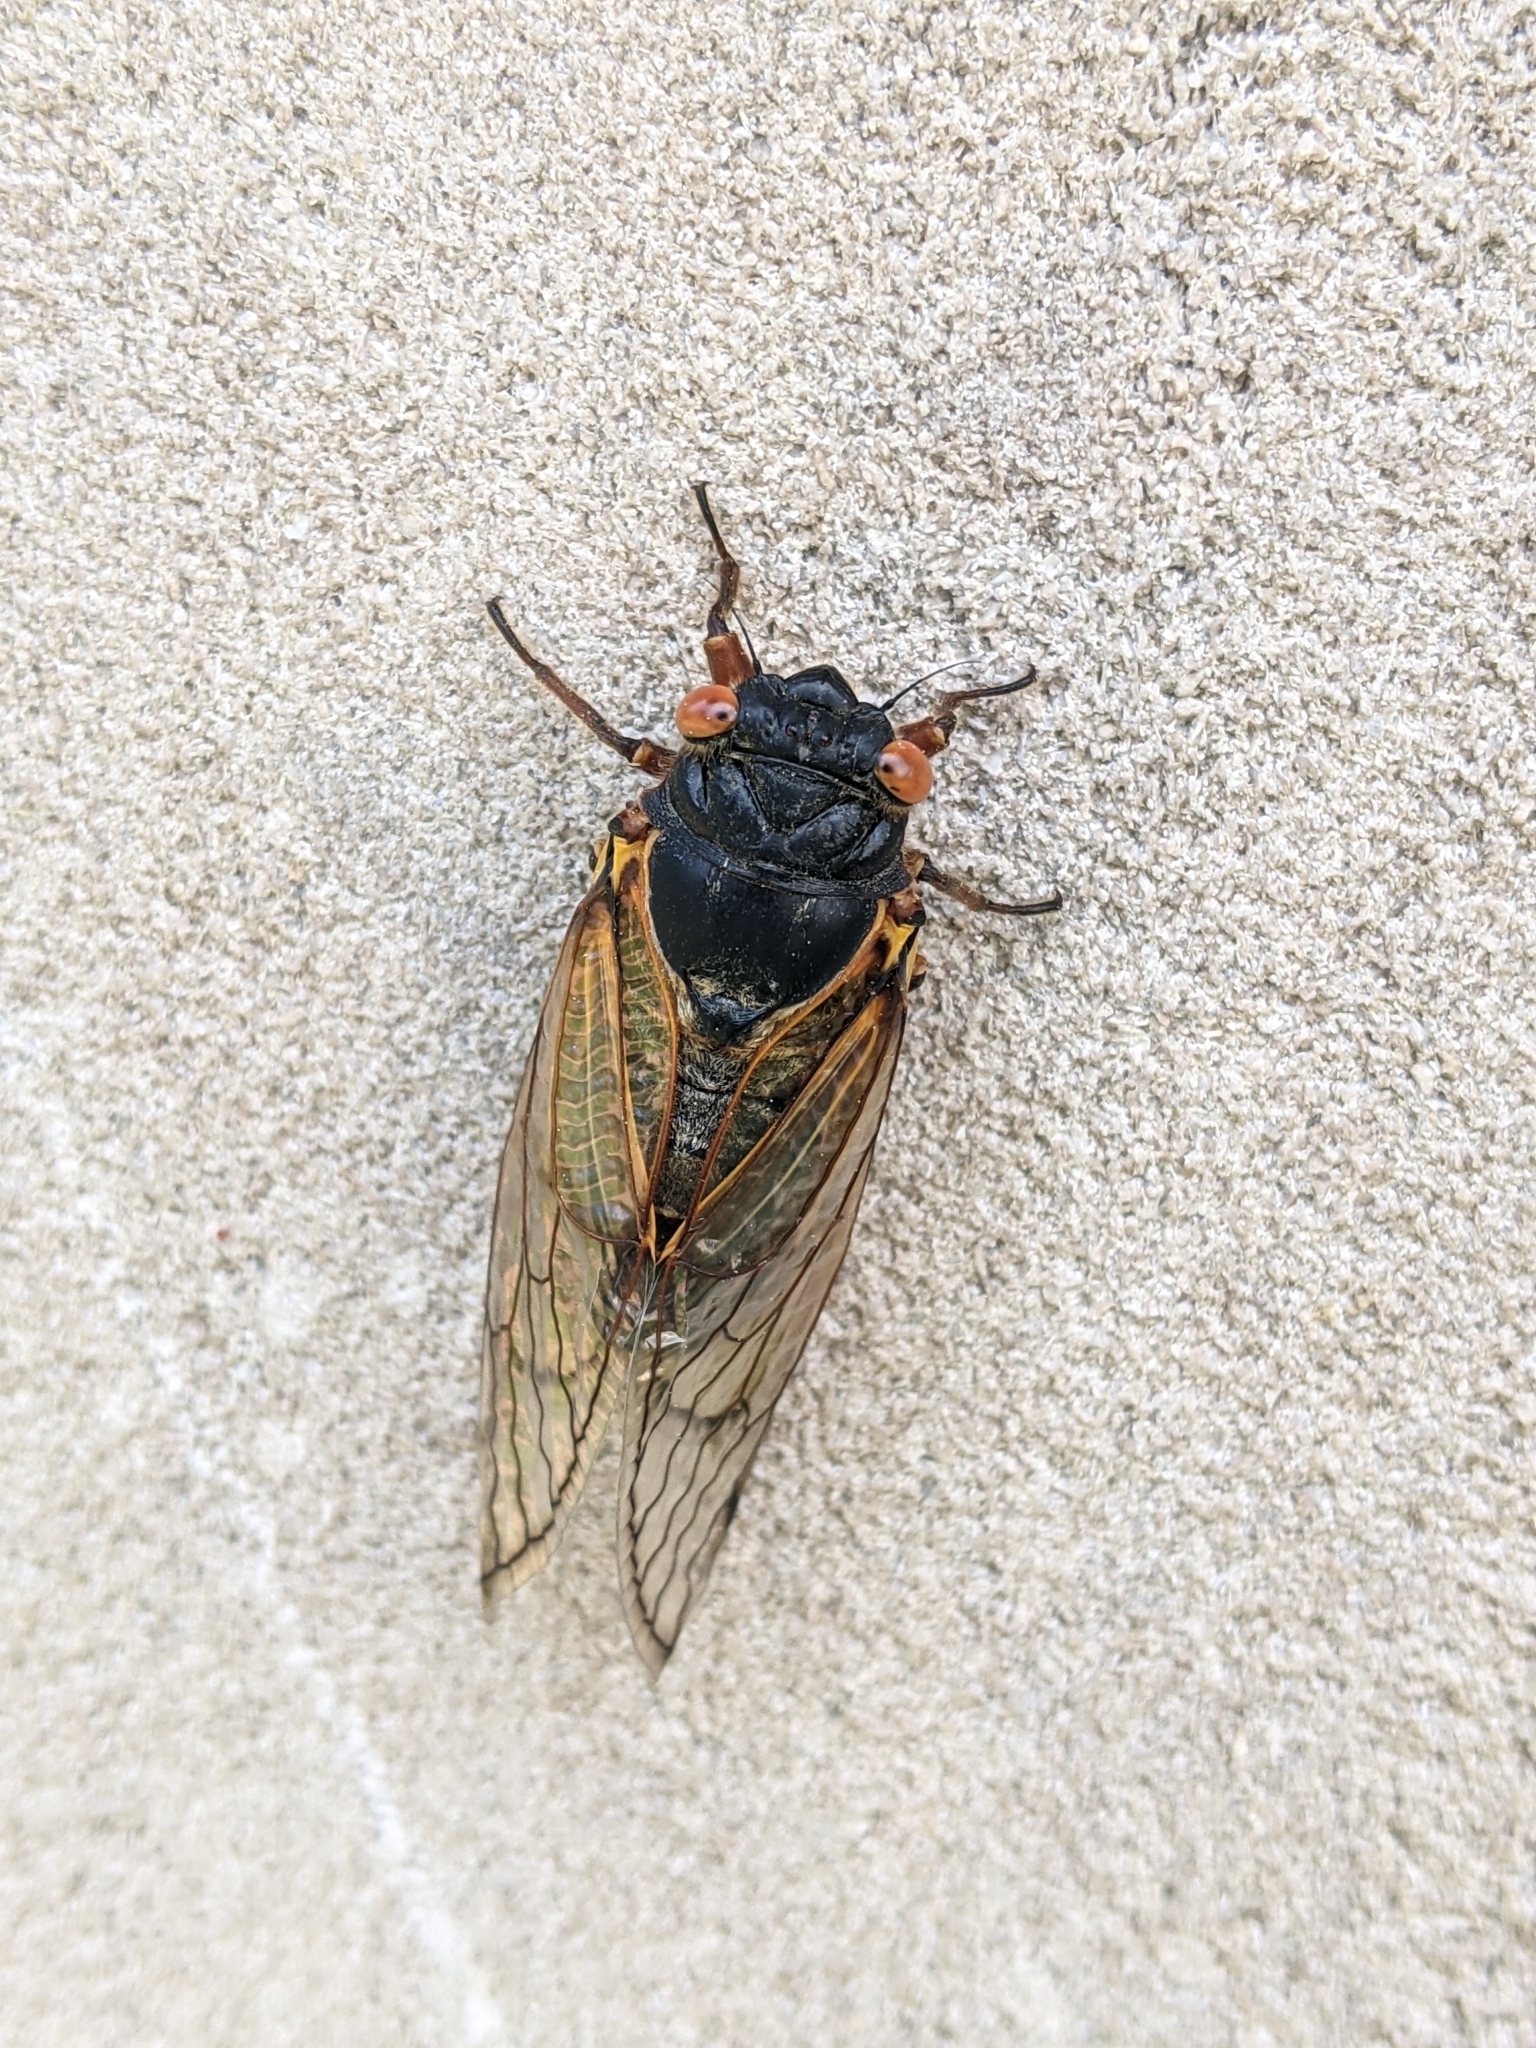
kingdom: Animalia
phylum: Arthropoda
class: Insecta
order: Hemiptera
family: Cicadidae
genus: Magicicada
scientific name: Magicicada septendecim
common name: Periodical cicada
